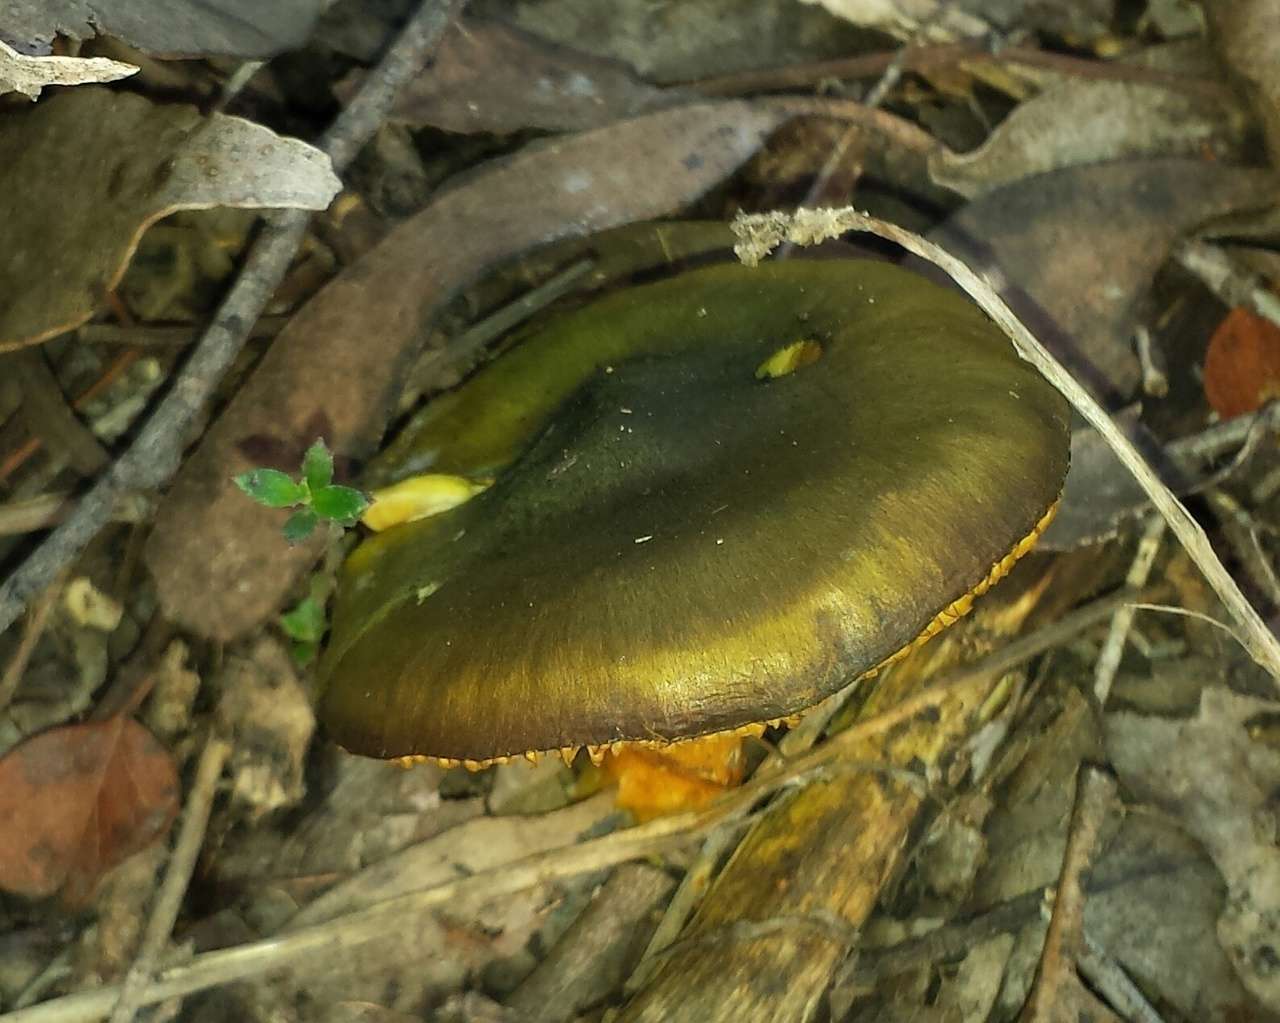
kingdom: Fungi
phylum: Basidiomycota
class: Agaricomycetes
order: Agaricales
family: Cortinariaceae
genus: Cortinarius
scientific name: Cortinarius austrovenetus
